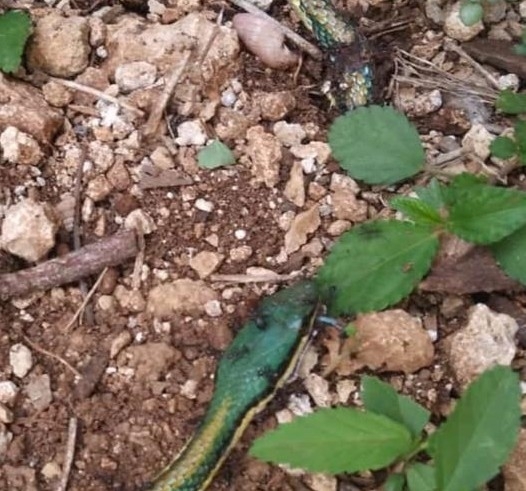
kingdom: Animalia
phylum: Chordata
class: Squamata
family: Colubridae
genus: Leptophis
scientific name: Leptophis mexicanus
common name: Mexican parrot snake
